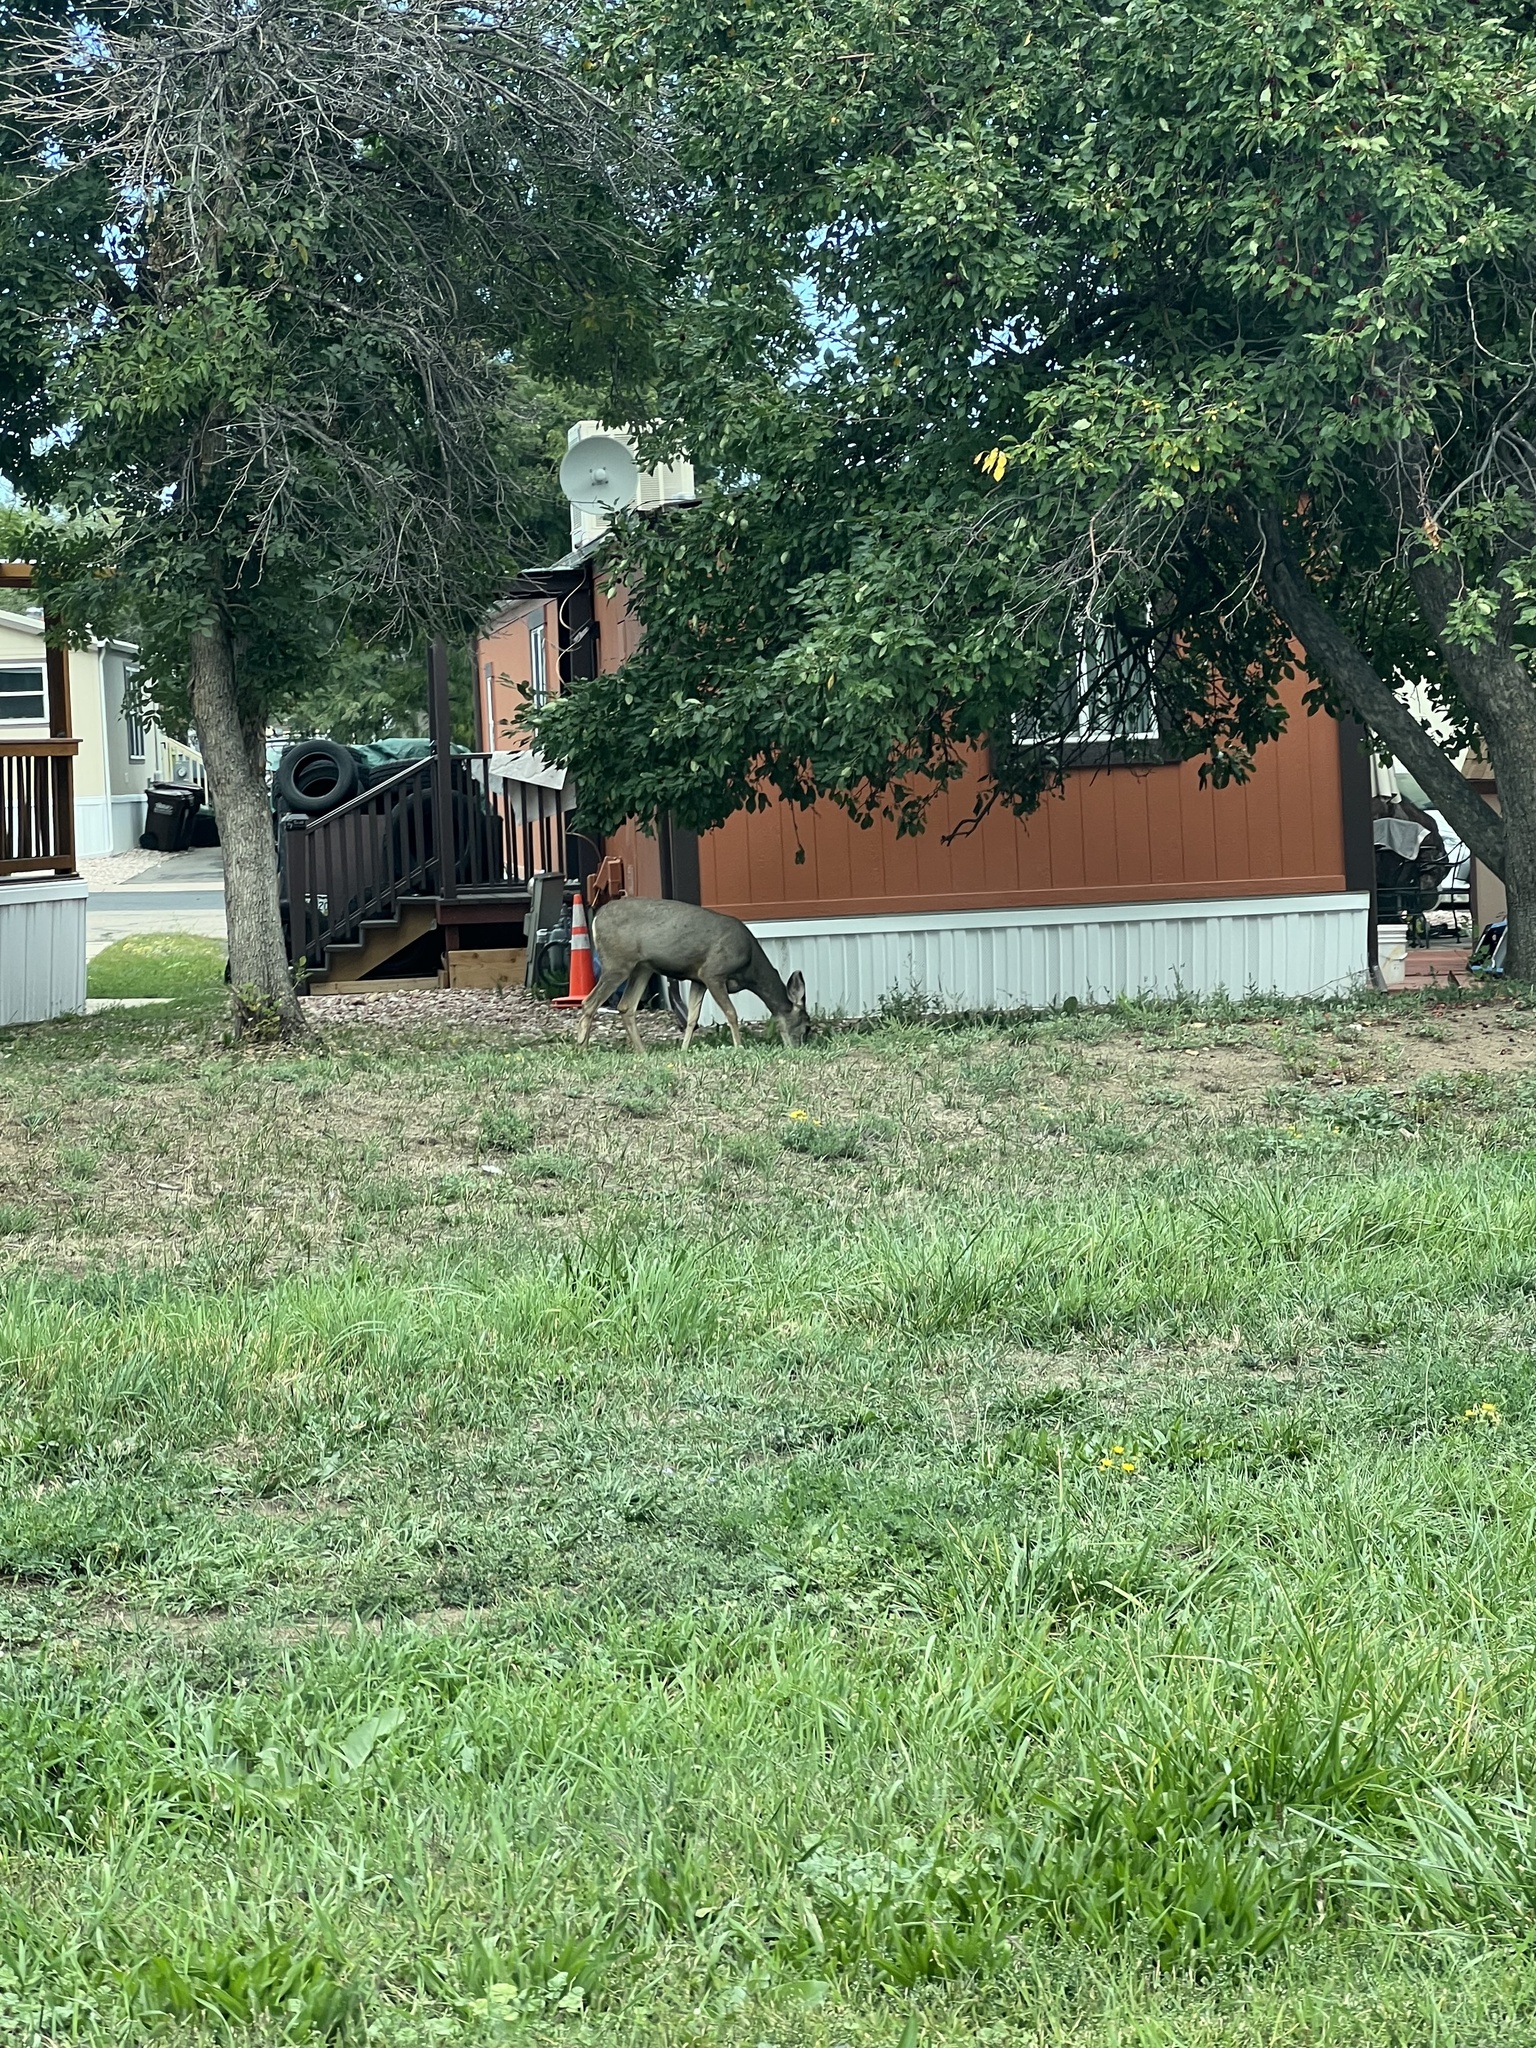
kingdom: Animalia
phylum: Chordata
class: Mammalia
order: Artiodactyla
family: Cervidae
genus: Odocoileus
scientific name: Odocoileus hemionus
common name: Mule deer
